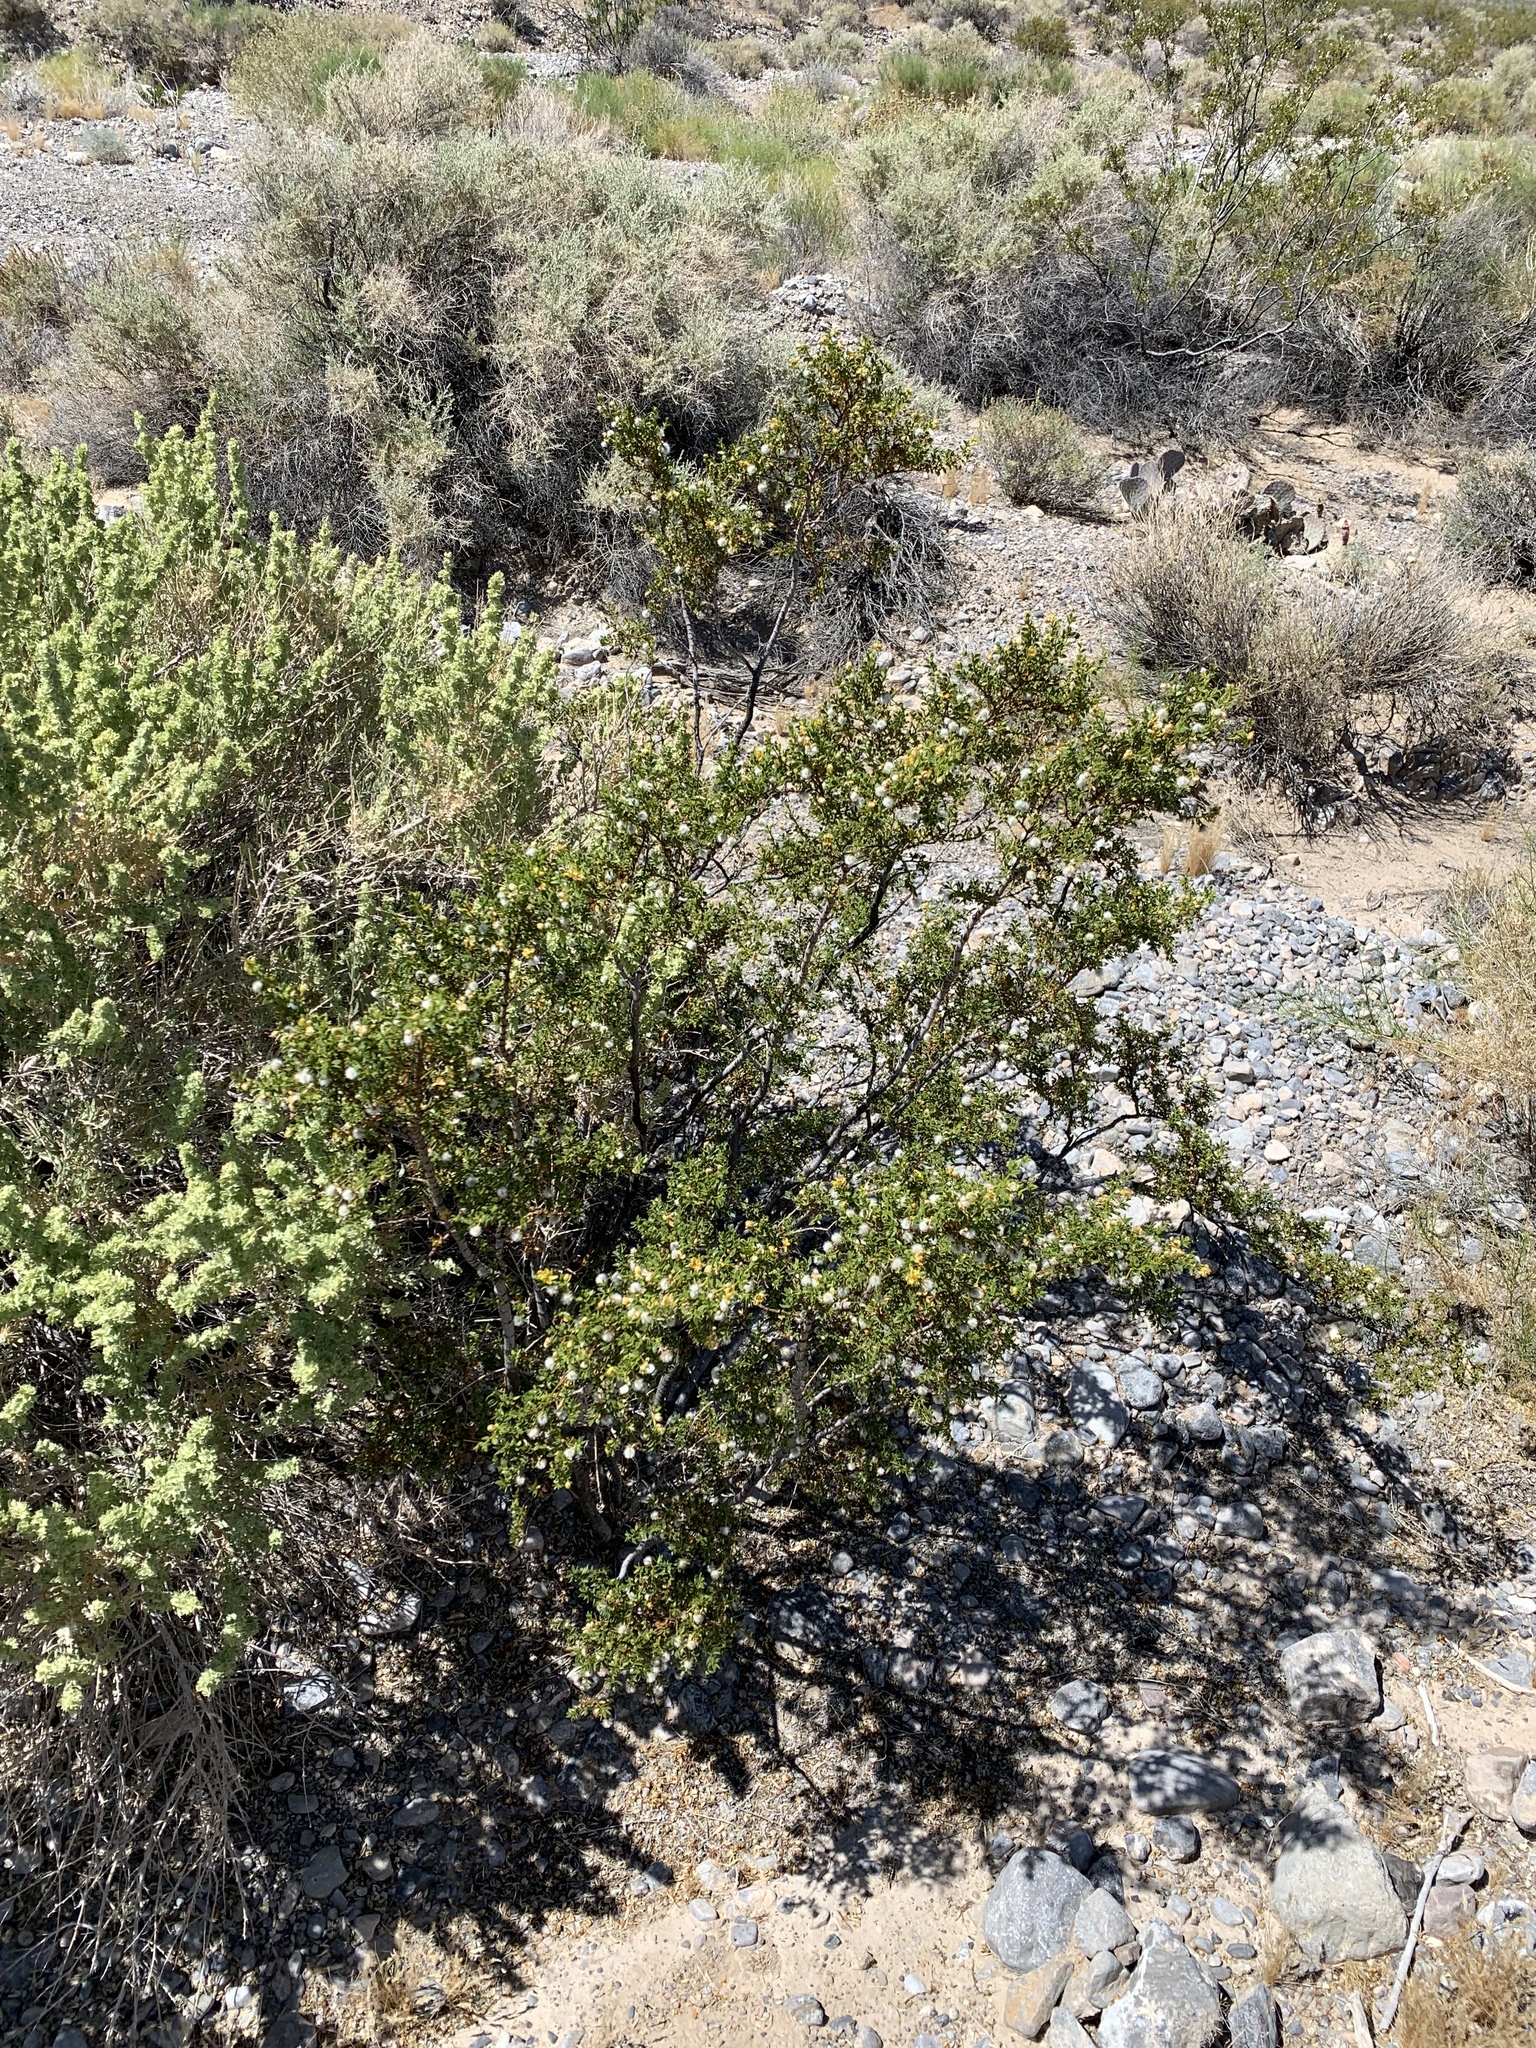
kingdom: Plantae
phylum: Tracheophyta
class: Magnoliopsida
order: Zygophyllales
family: Zygophyllaceae
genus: Larrea
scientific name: Larrea tridentata
